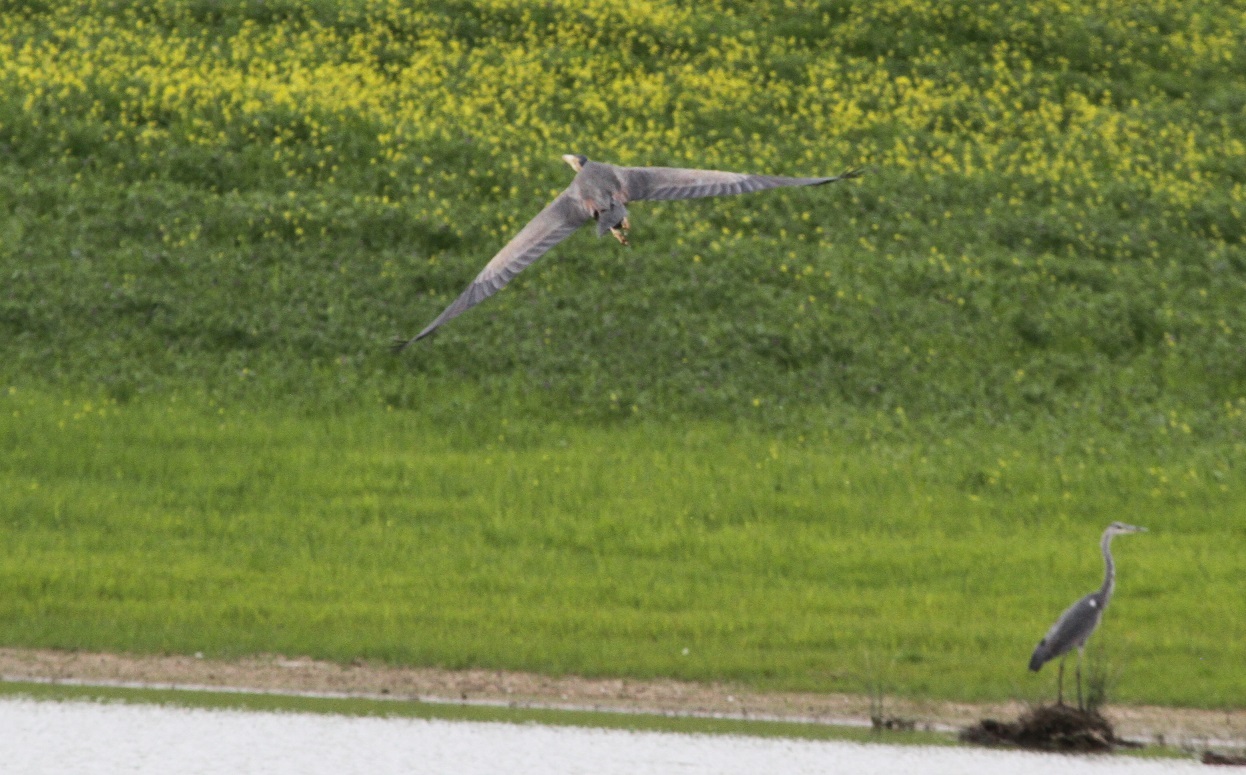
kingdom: Animalia
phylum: Chordata
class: Aves
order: Pelecaniformes
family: Ardeidae
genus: Ardea
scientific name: Ardea cinerea
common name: Grey heron
